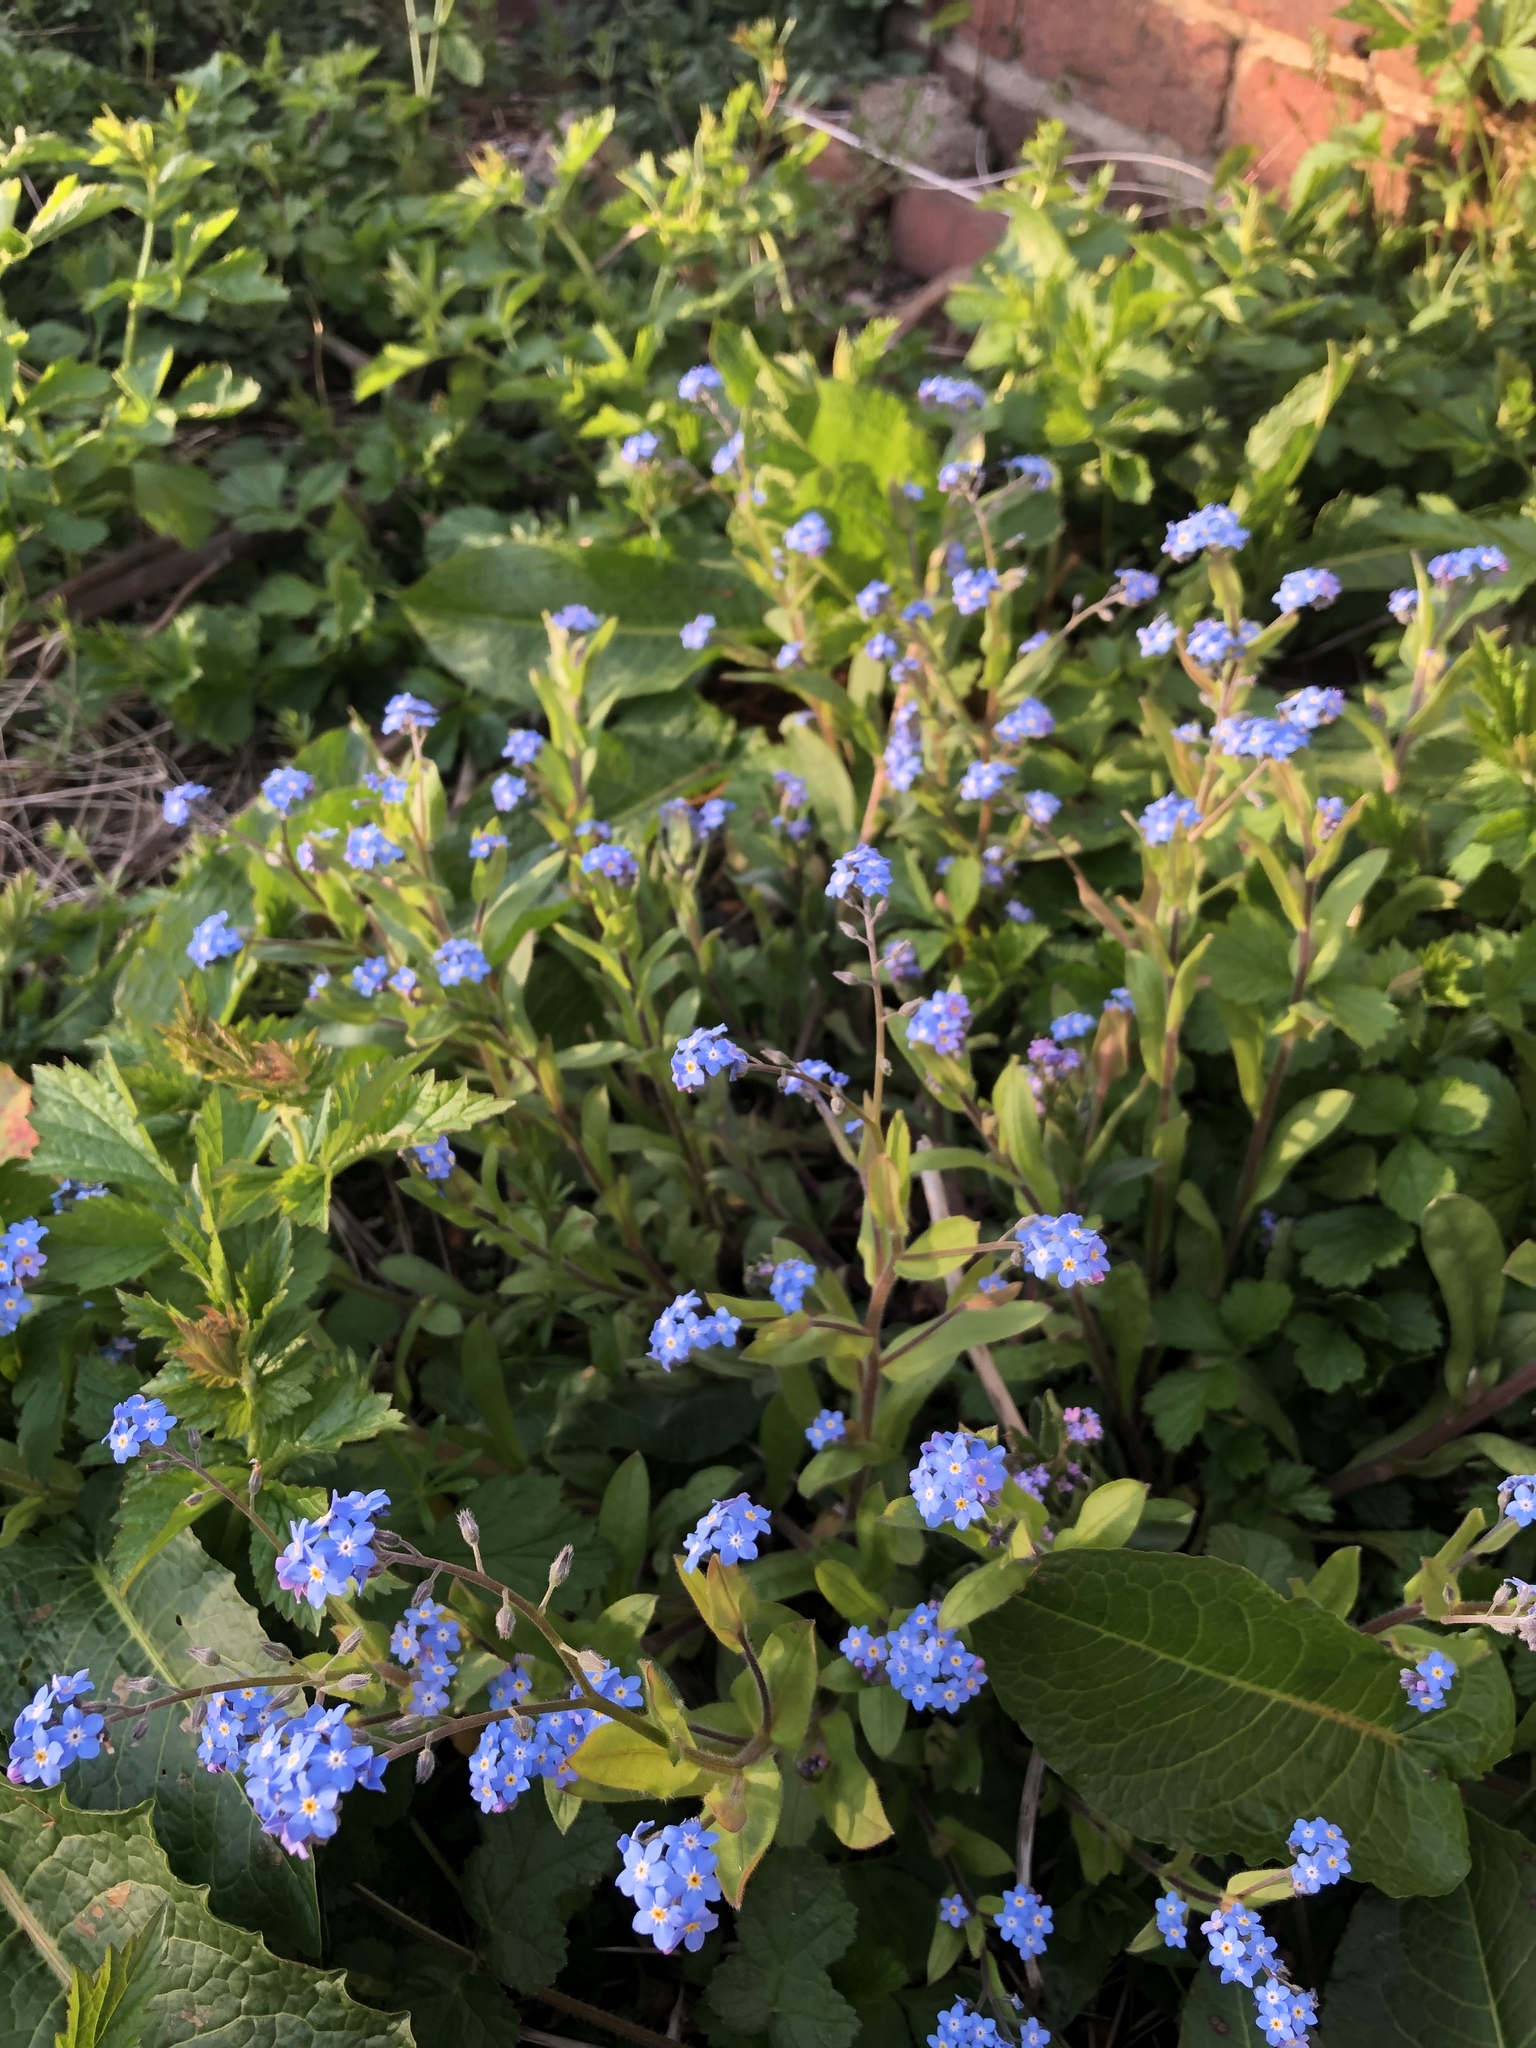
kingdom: Plantae
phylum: Tracheophyta
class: Magnoliopsida
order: Boraginales
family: Boraginaceae
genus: Myosotis
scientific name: Myosotis sylvatica
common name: Wood forget-me-not
